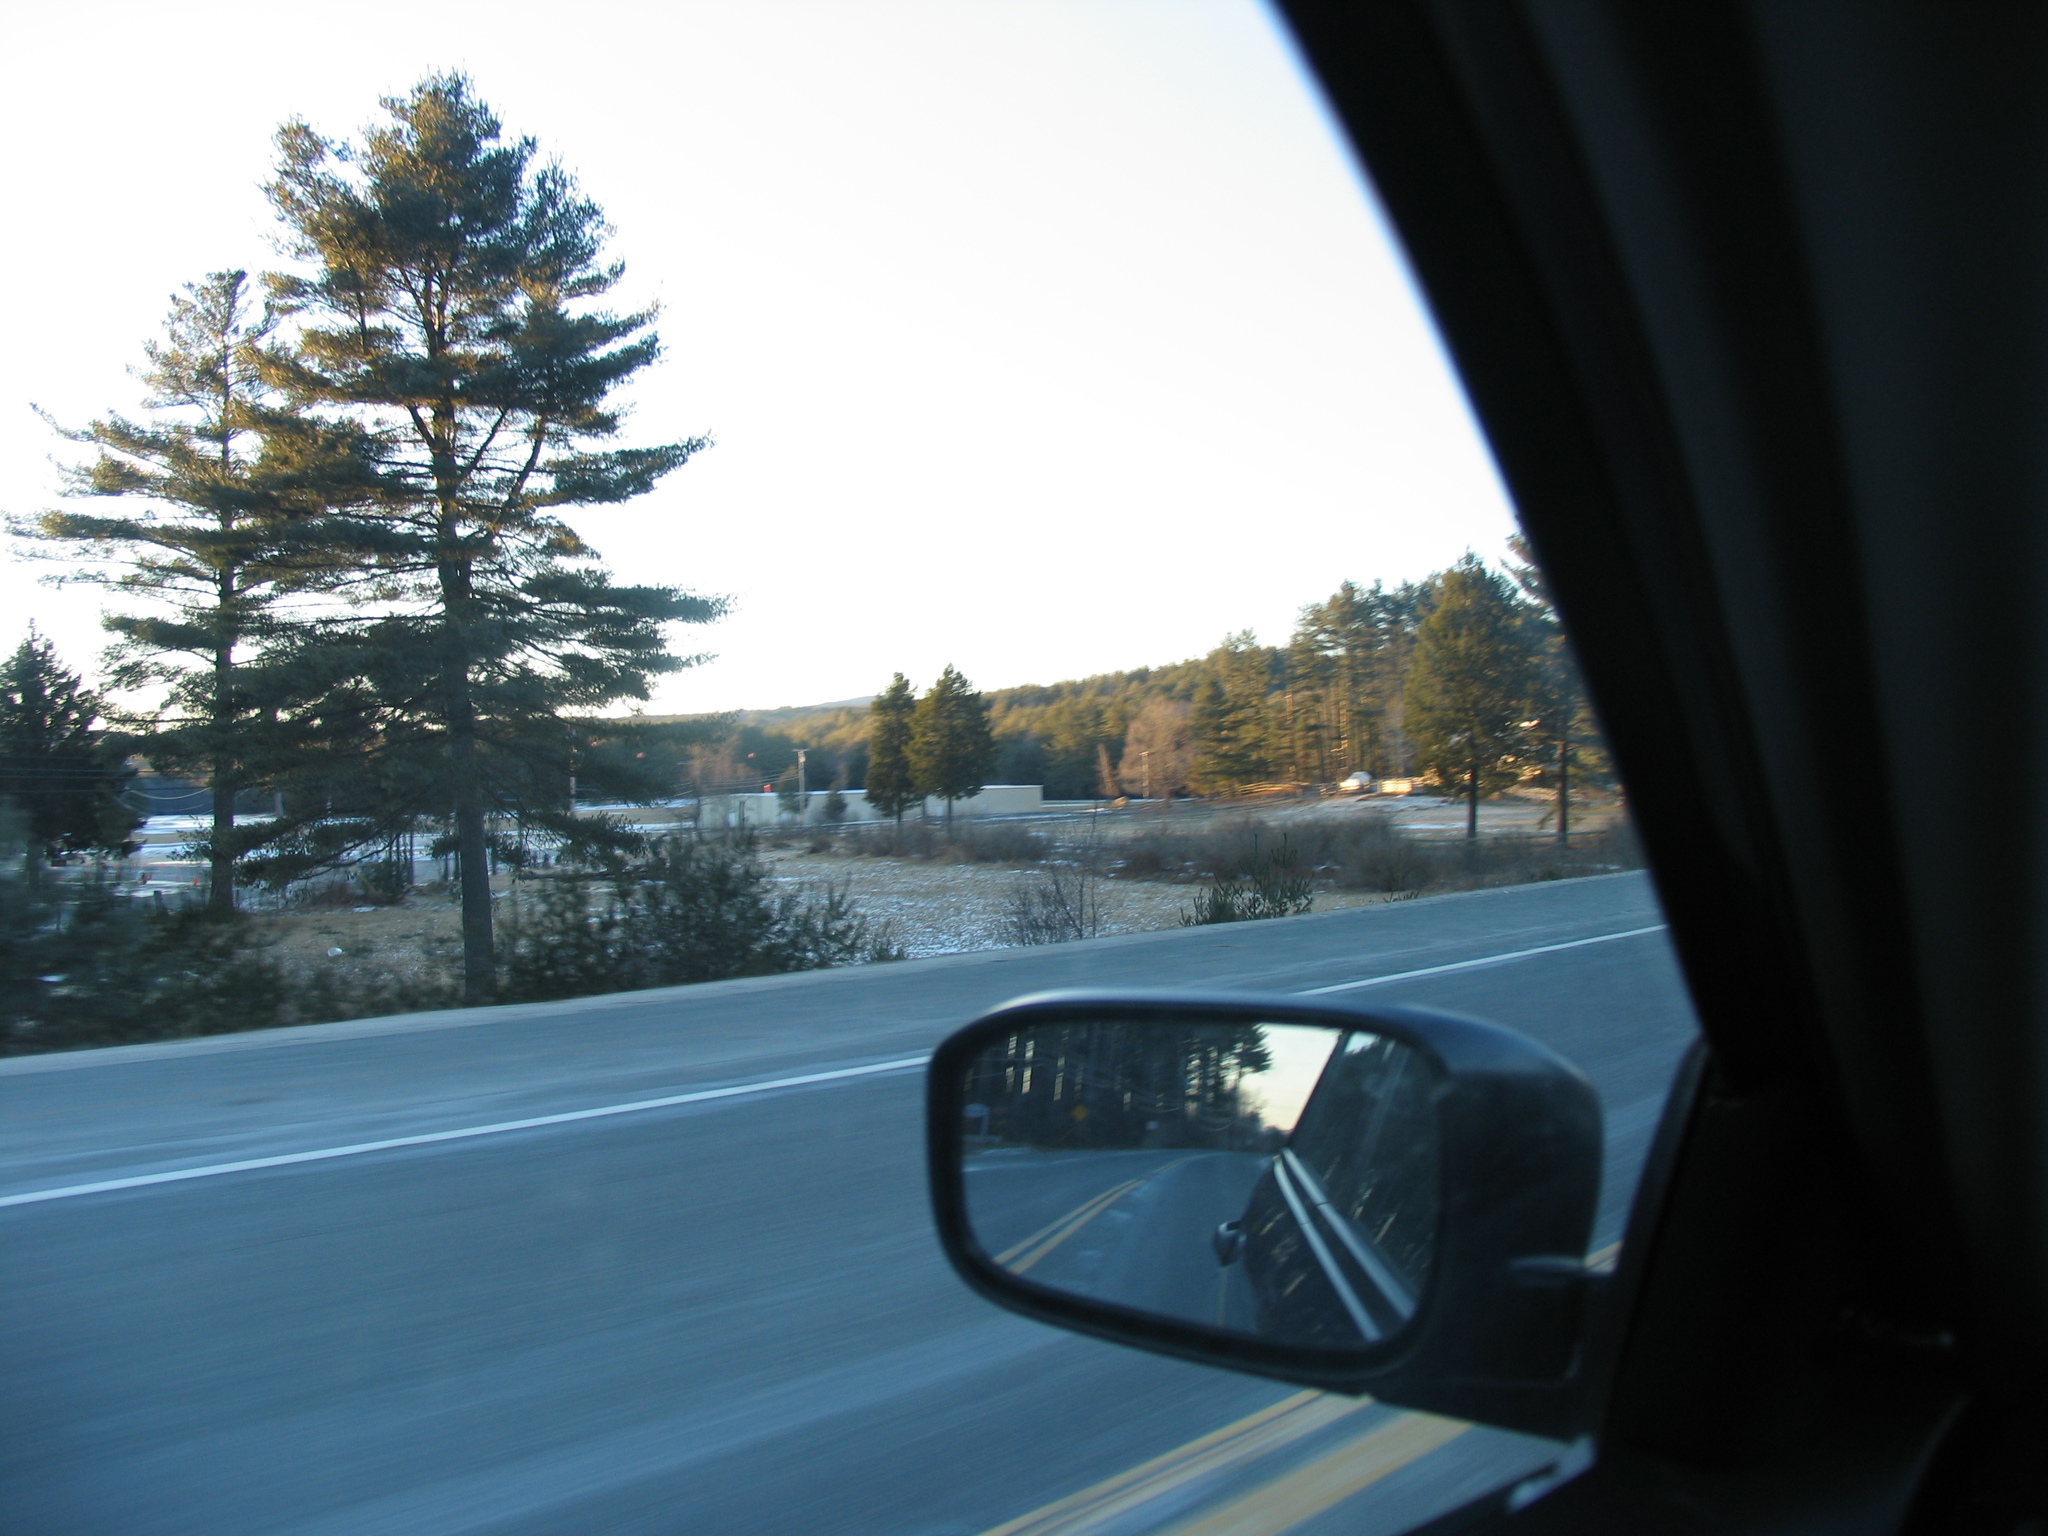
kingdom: Plantae
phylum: Tracheophyta
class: Pinopsida
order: Pinales
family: Pinaceae
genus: Pinus
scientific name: Pinus strobus
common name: Weymouth pine
